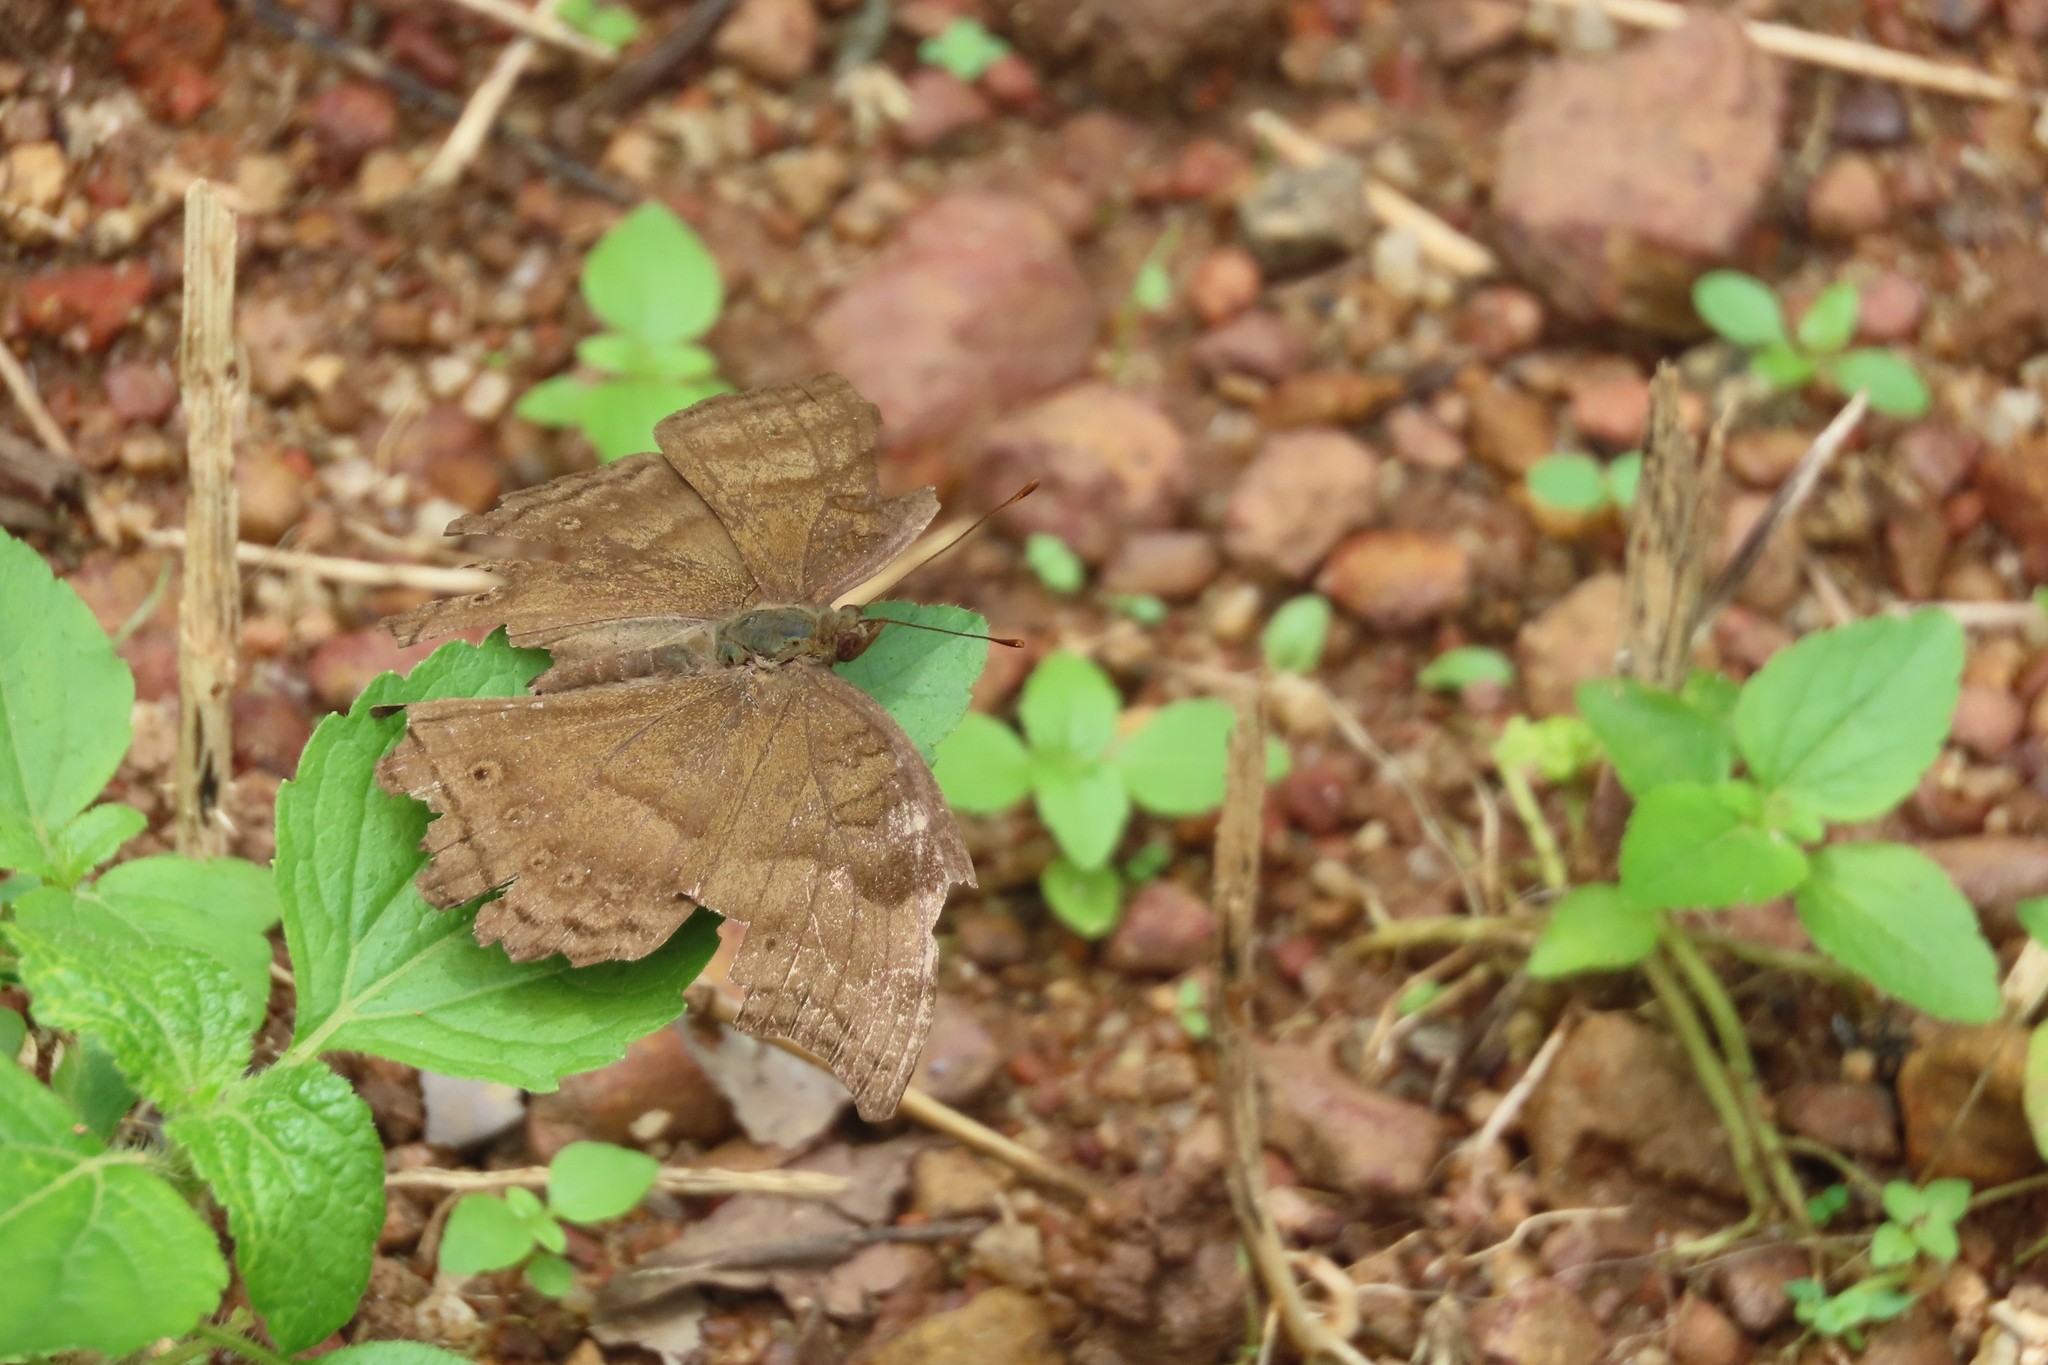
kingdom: Animalia
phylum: Arthropoda
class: Insecta
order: Lepidoptera
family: Nymphalidae
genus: Junonia
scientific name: Junonia iphita
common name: Chocolate pansy
